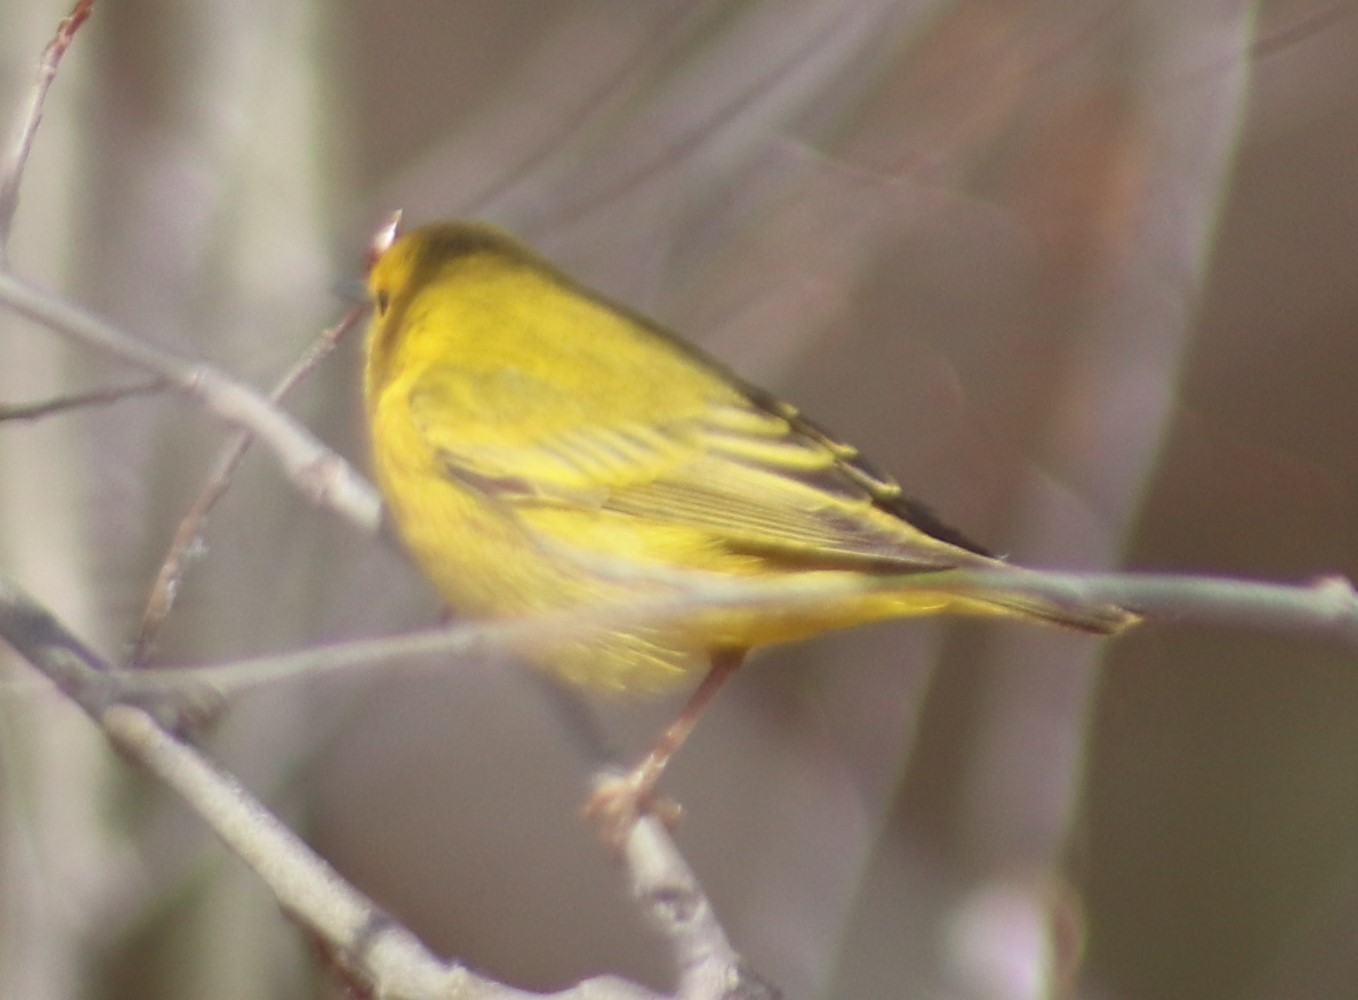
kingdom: Animalia
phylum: Chordata
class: Aves
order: Passeriformes
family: Parulidae
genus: Setophaga
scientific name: Setophaga petechia
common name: Yellow warbler
